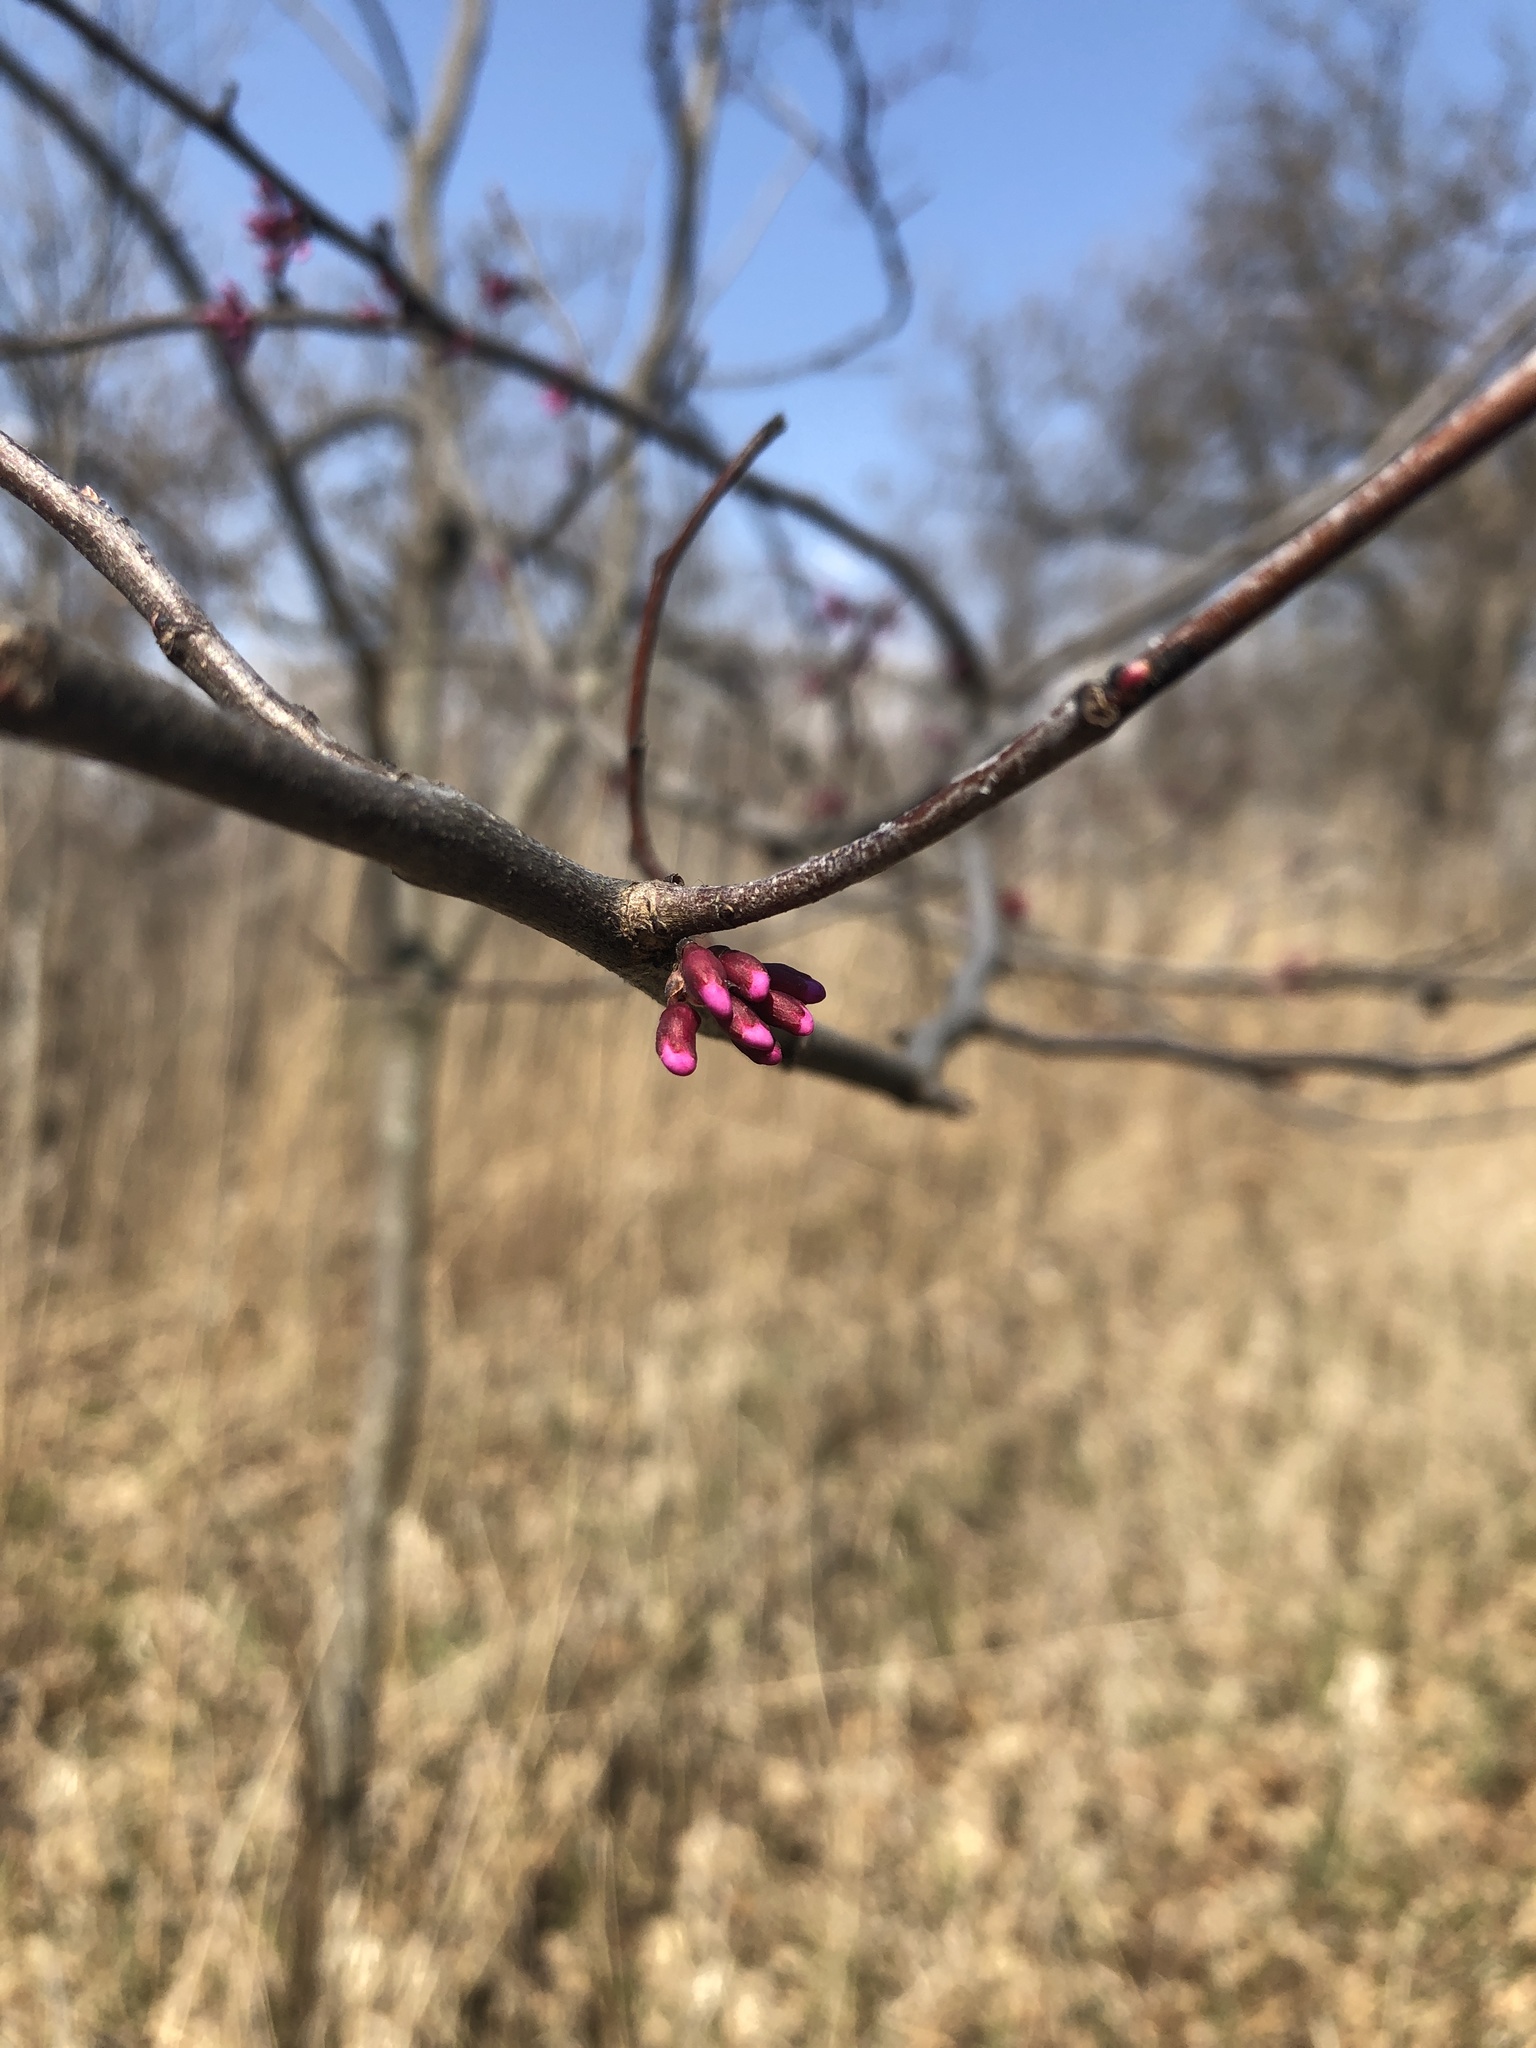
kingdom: Plantae
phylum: Tracheophyta
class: Magnoliopsida
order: Fabales
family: Fabaceae
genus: Cercis
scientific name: Cercis canadensis
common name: Eastern redbud
